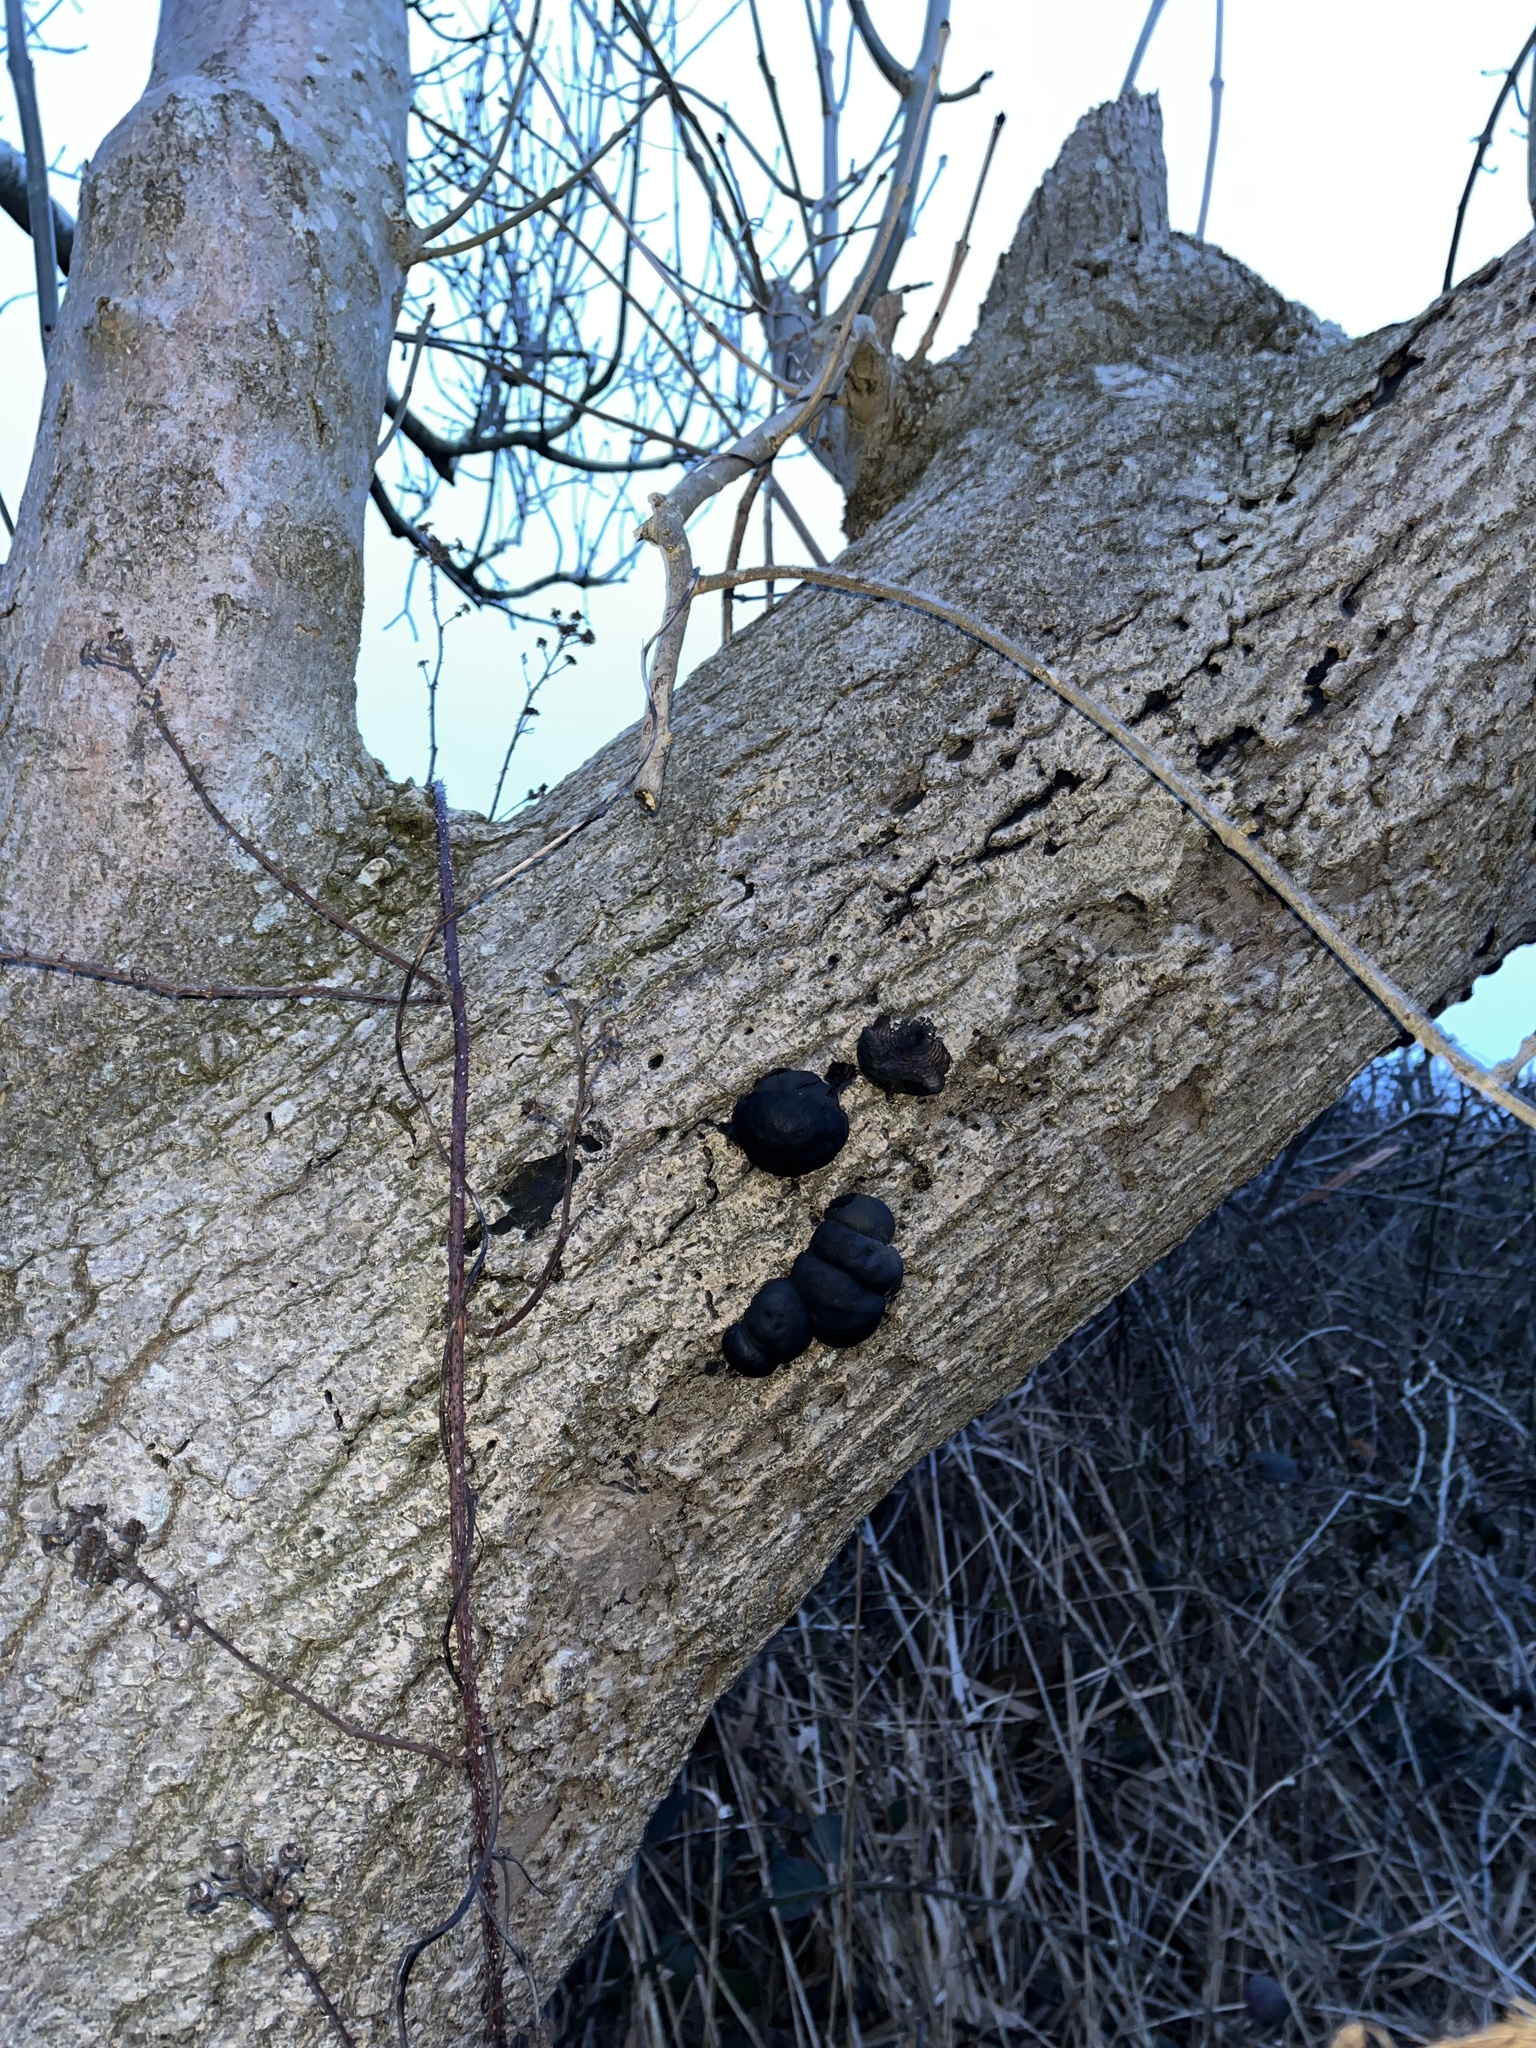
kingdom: Fungi
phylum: Ascomycota
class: Sordariomycetes
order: Xylariales
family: Hypoxylaceae
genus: Daldinia
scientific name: Daldinia concentrica
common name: Cramp balls
